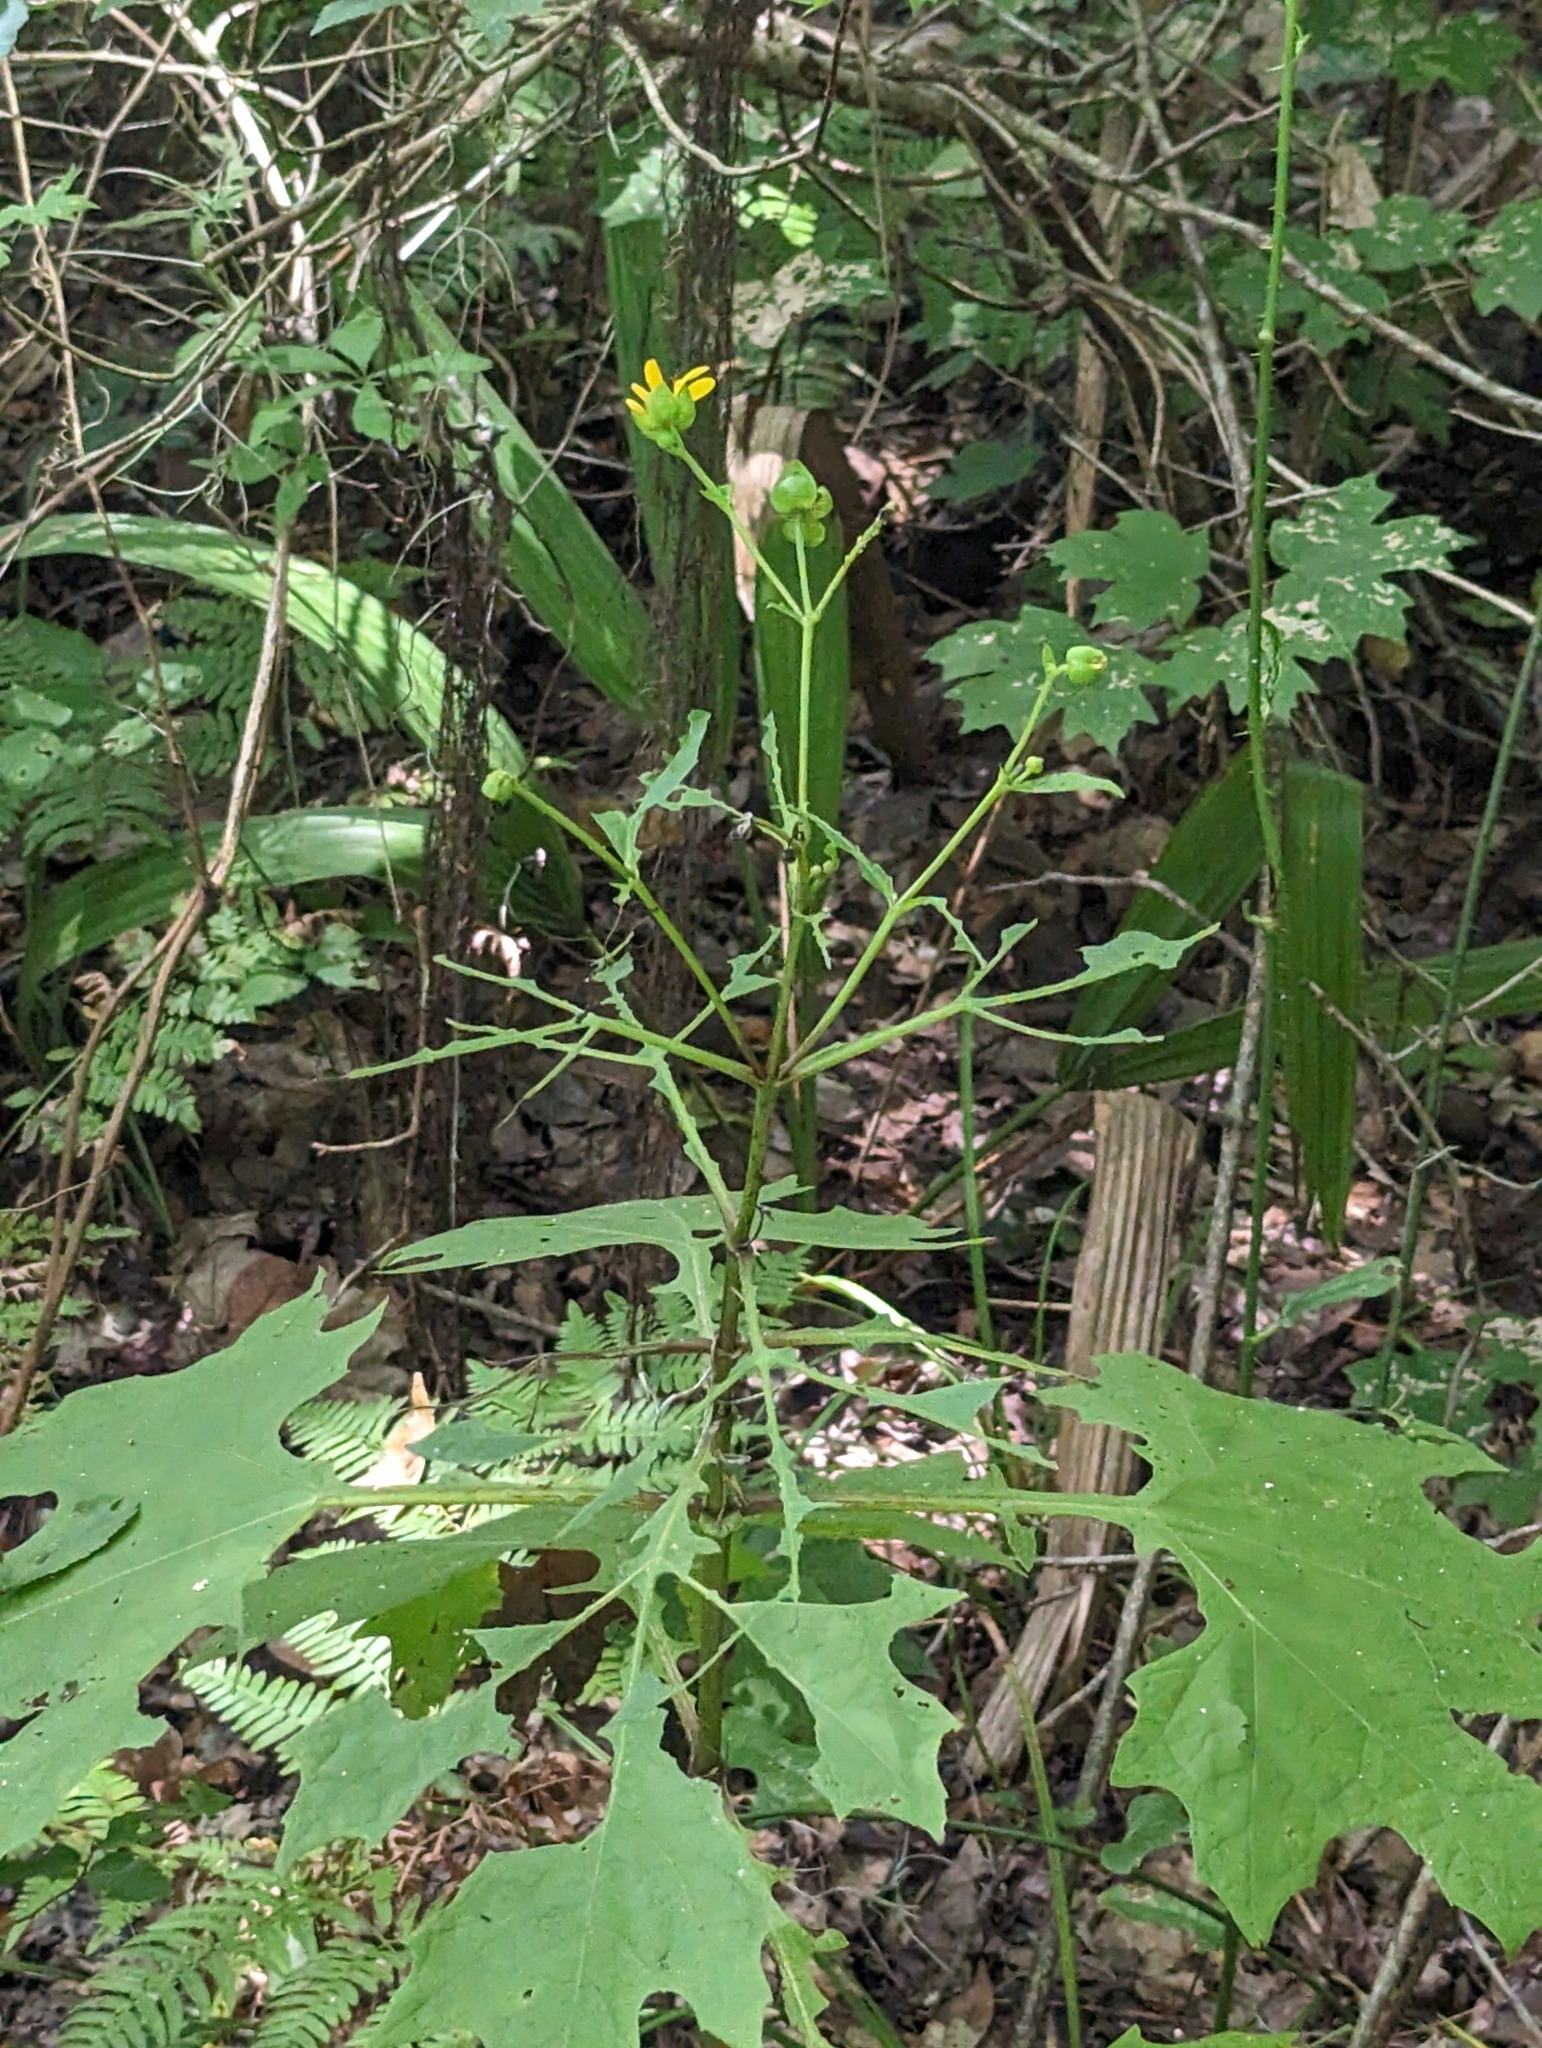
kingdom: Plantae
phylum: Tracheophyta
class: Magnoliopsida
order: Asterales
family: Asteraceae
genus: Smallanthus
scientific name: Smallanthus uvedalia
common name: Bear's-foot
